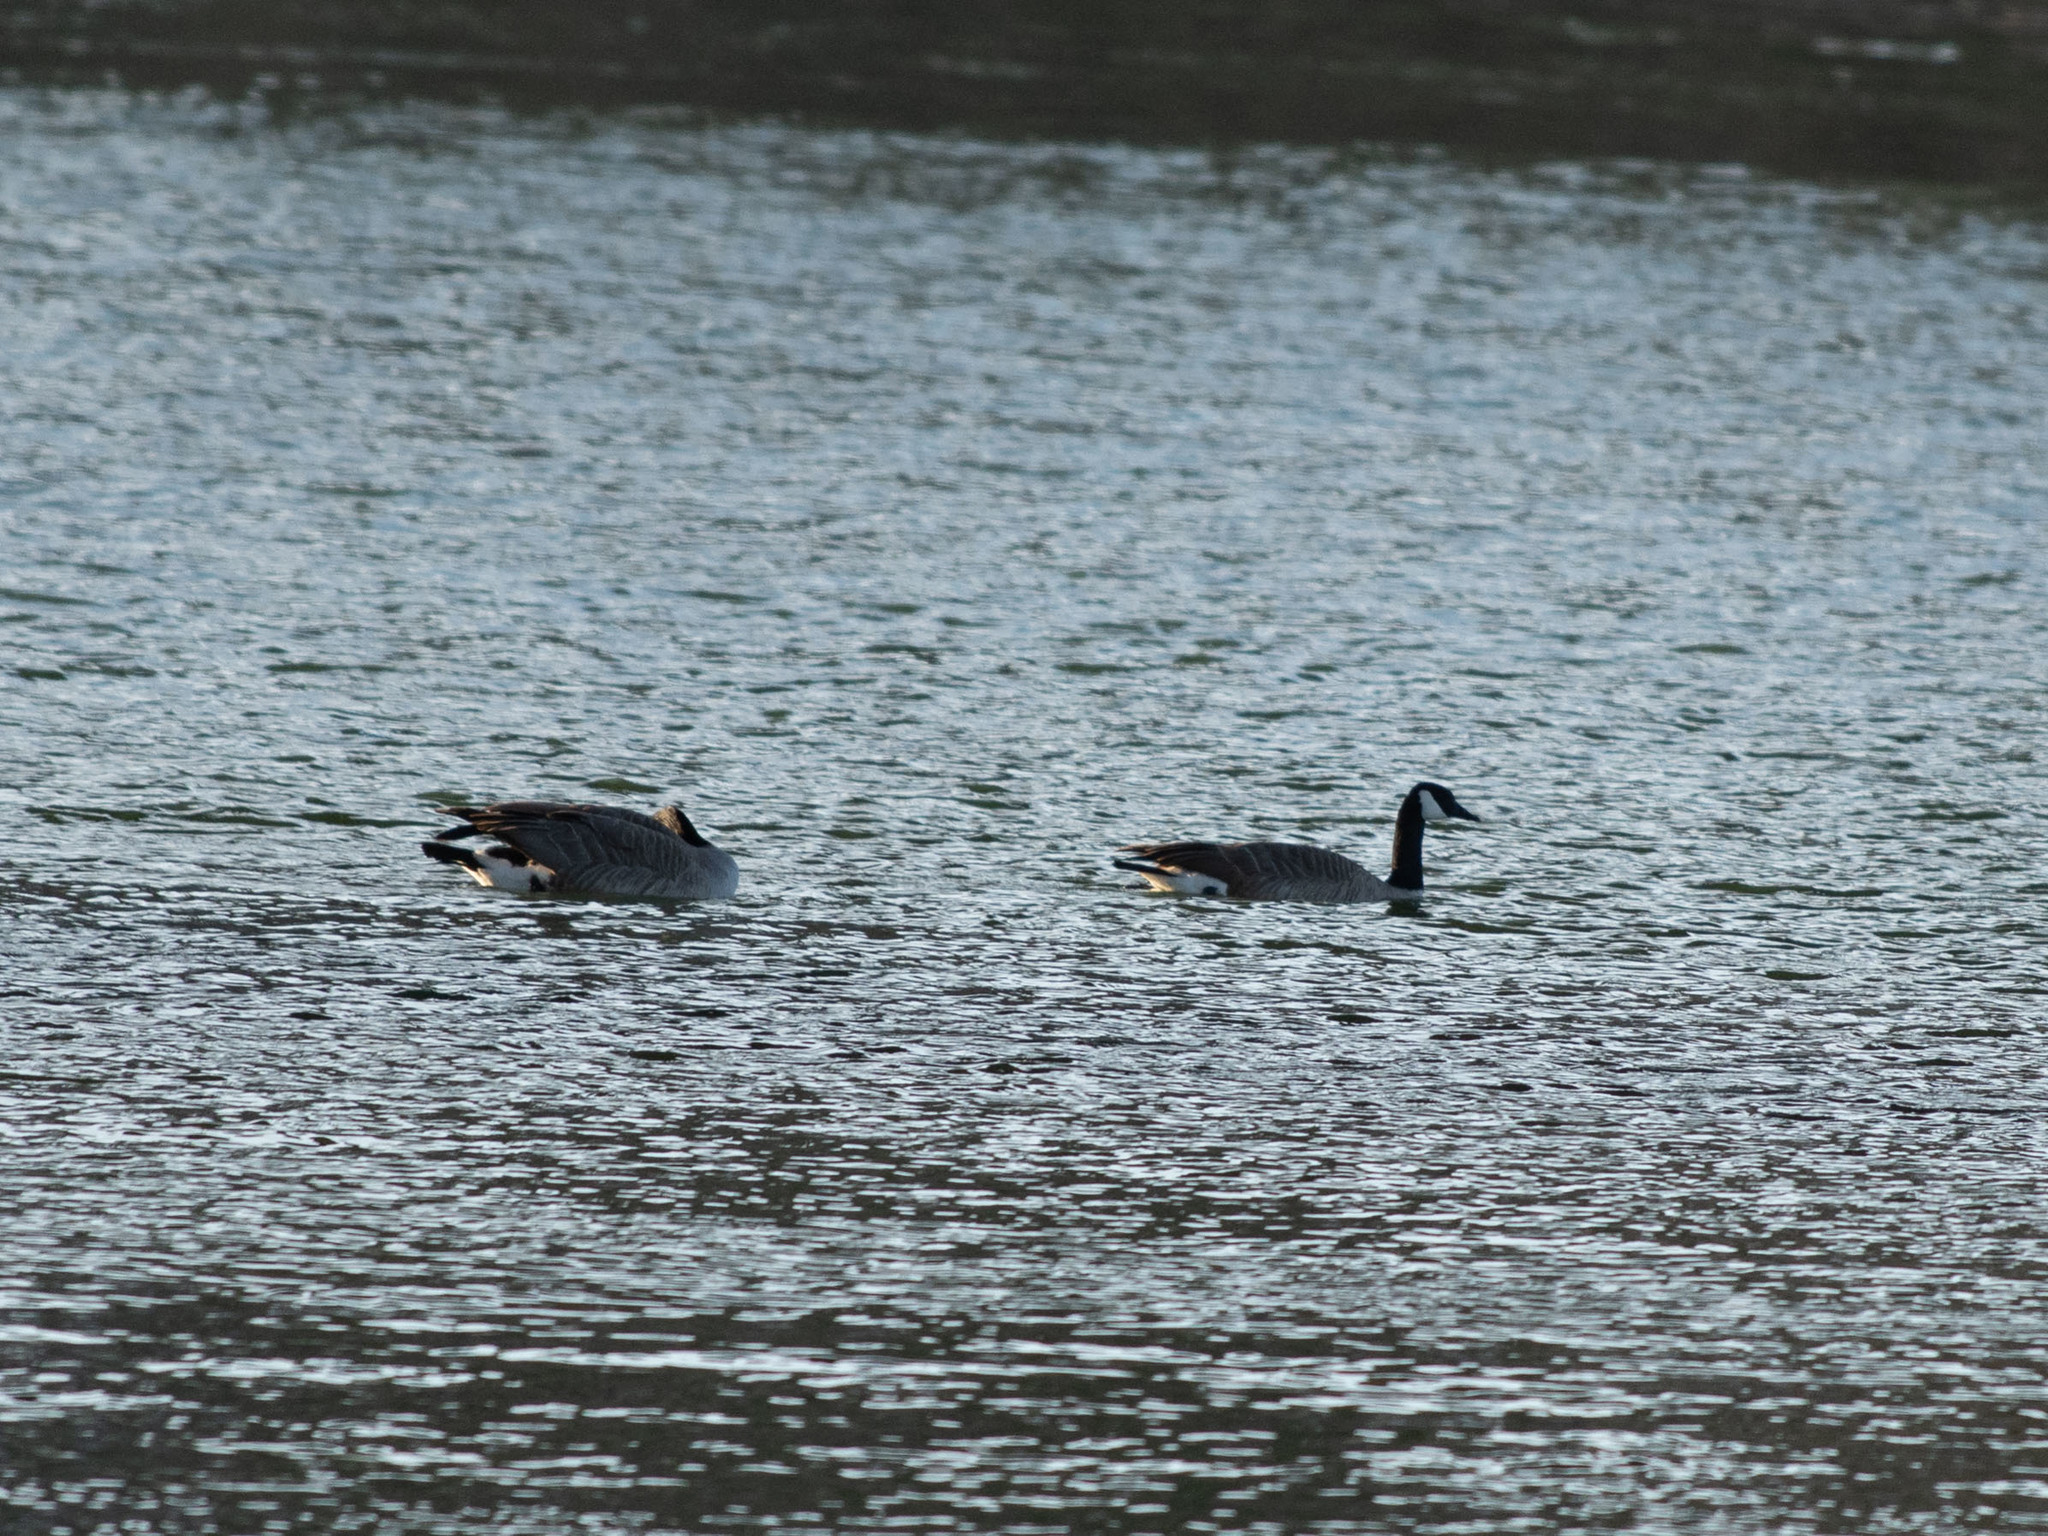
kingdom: Animalia
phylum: Chordata
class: Aves
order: Anseriformes
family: Anatidae
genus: Branta
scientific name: Branta canadensis
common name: Canada goose
